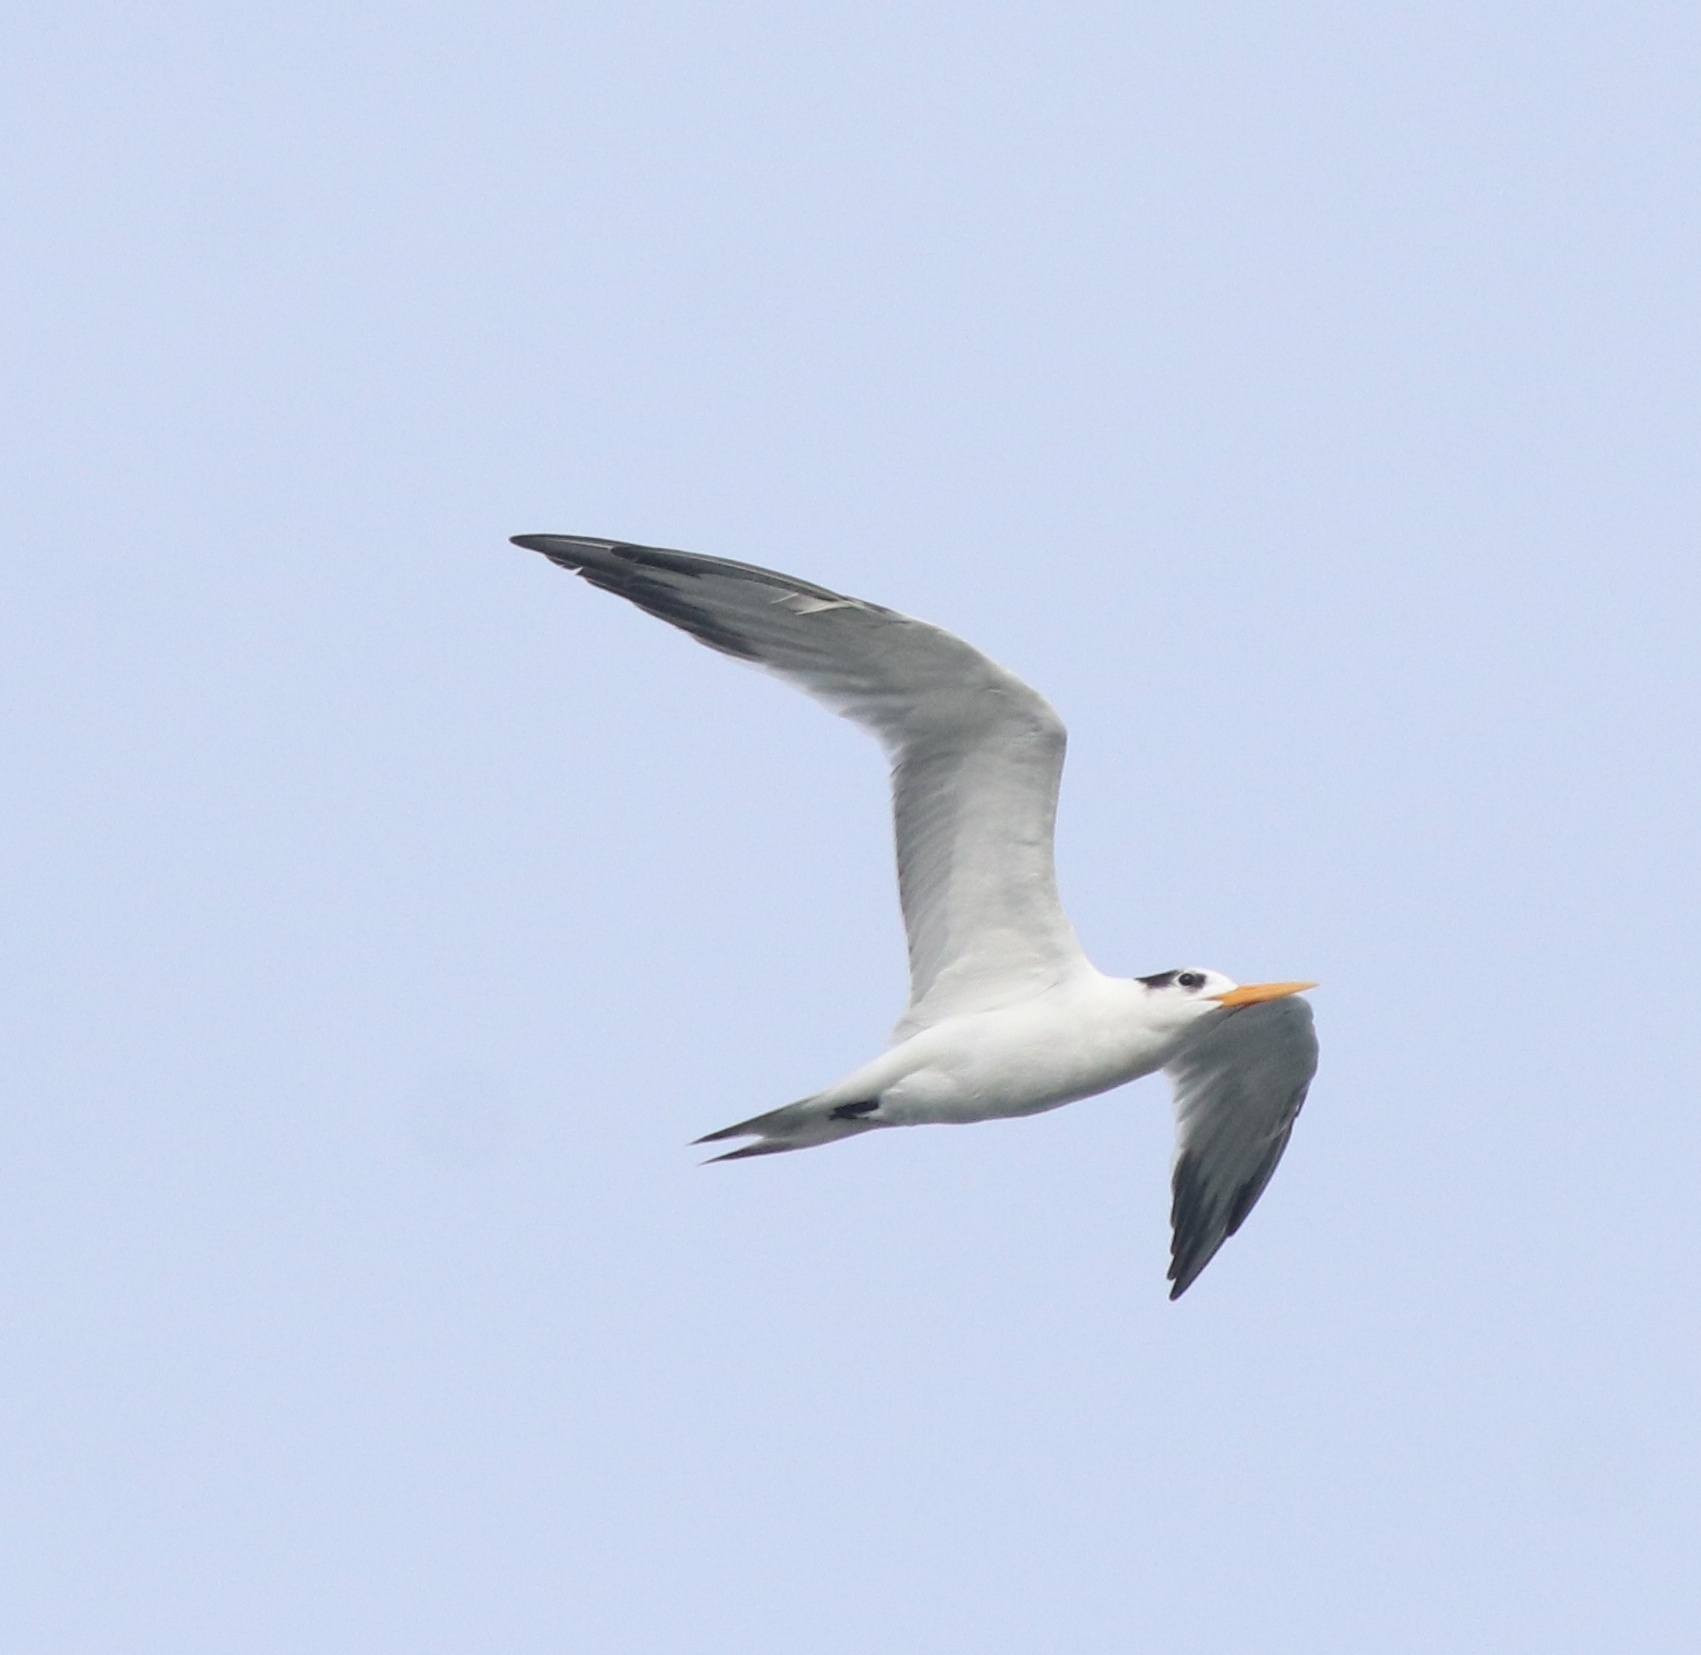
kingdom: Animalia
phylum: Chordata
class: Aves
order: Charadriiformes
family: Laridae
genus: Thalasseus
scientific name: Thalasseus bengalensis
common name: Lesser crested tern
